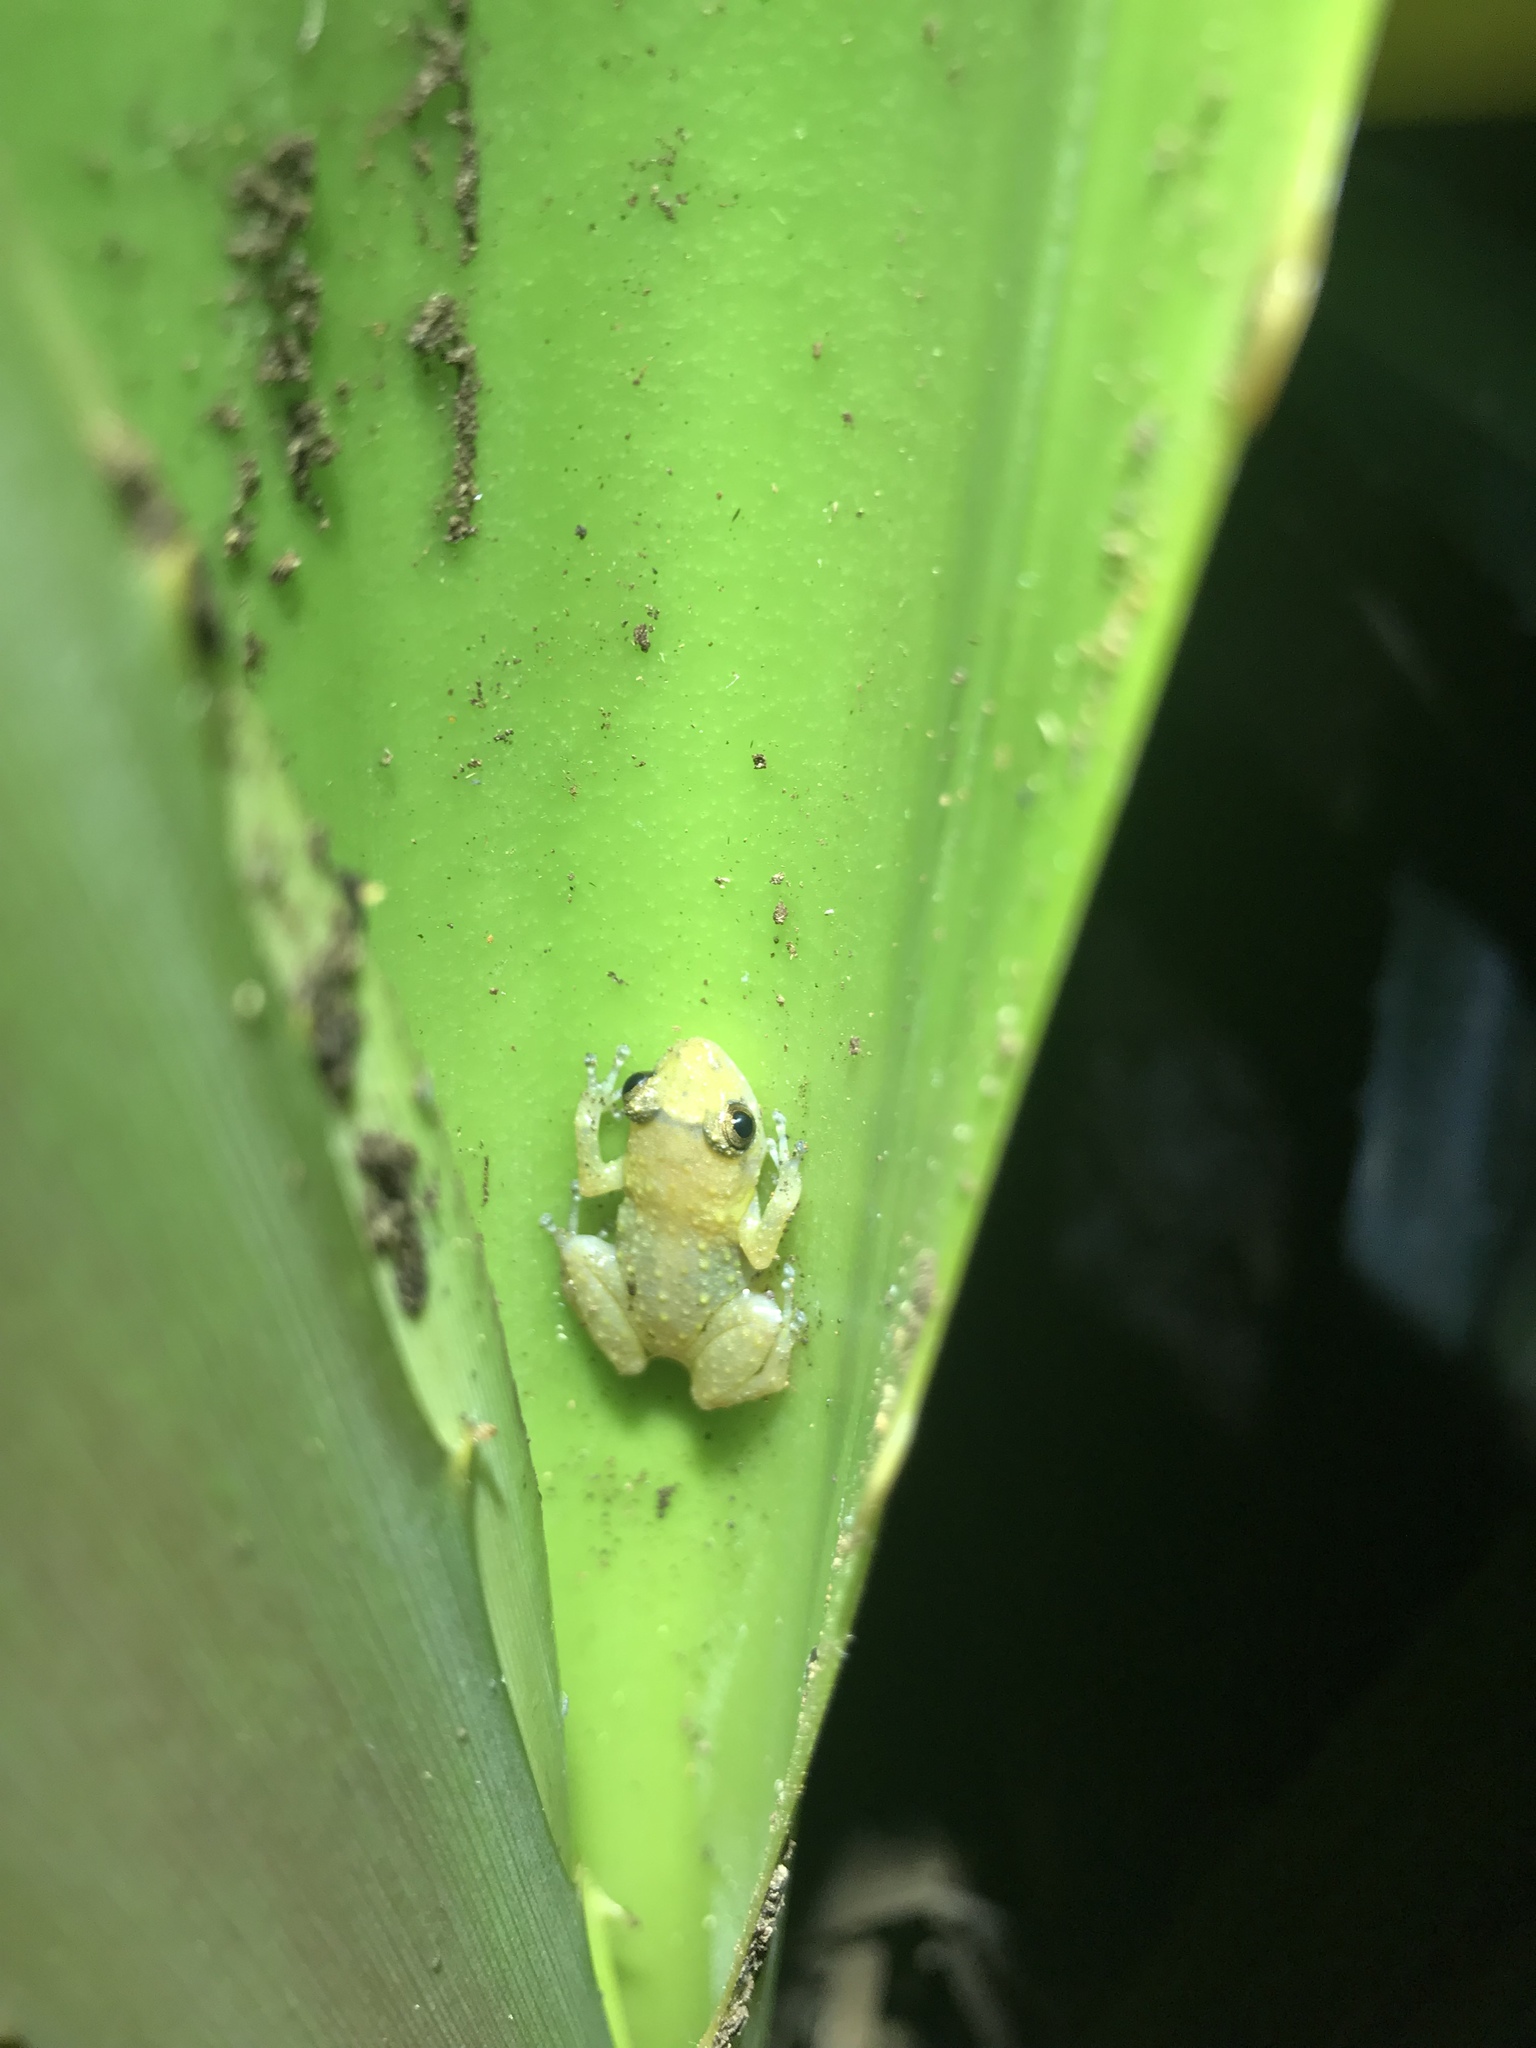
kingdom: Animalia
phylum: Chordata
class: Amphibia
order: Anura
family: Eleutherodactylidae
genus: Diasporus
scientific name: Diasporus diastema
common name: Caretta robber frog
